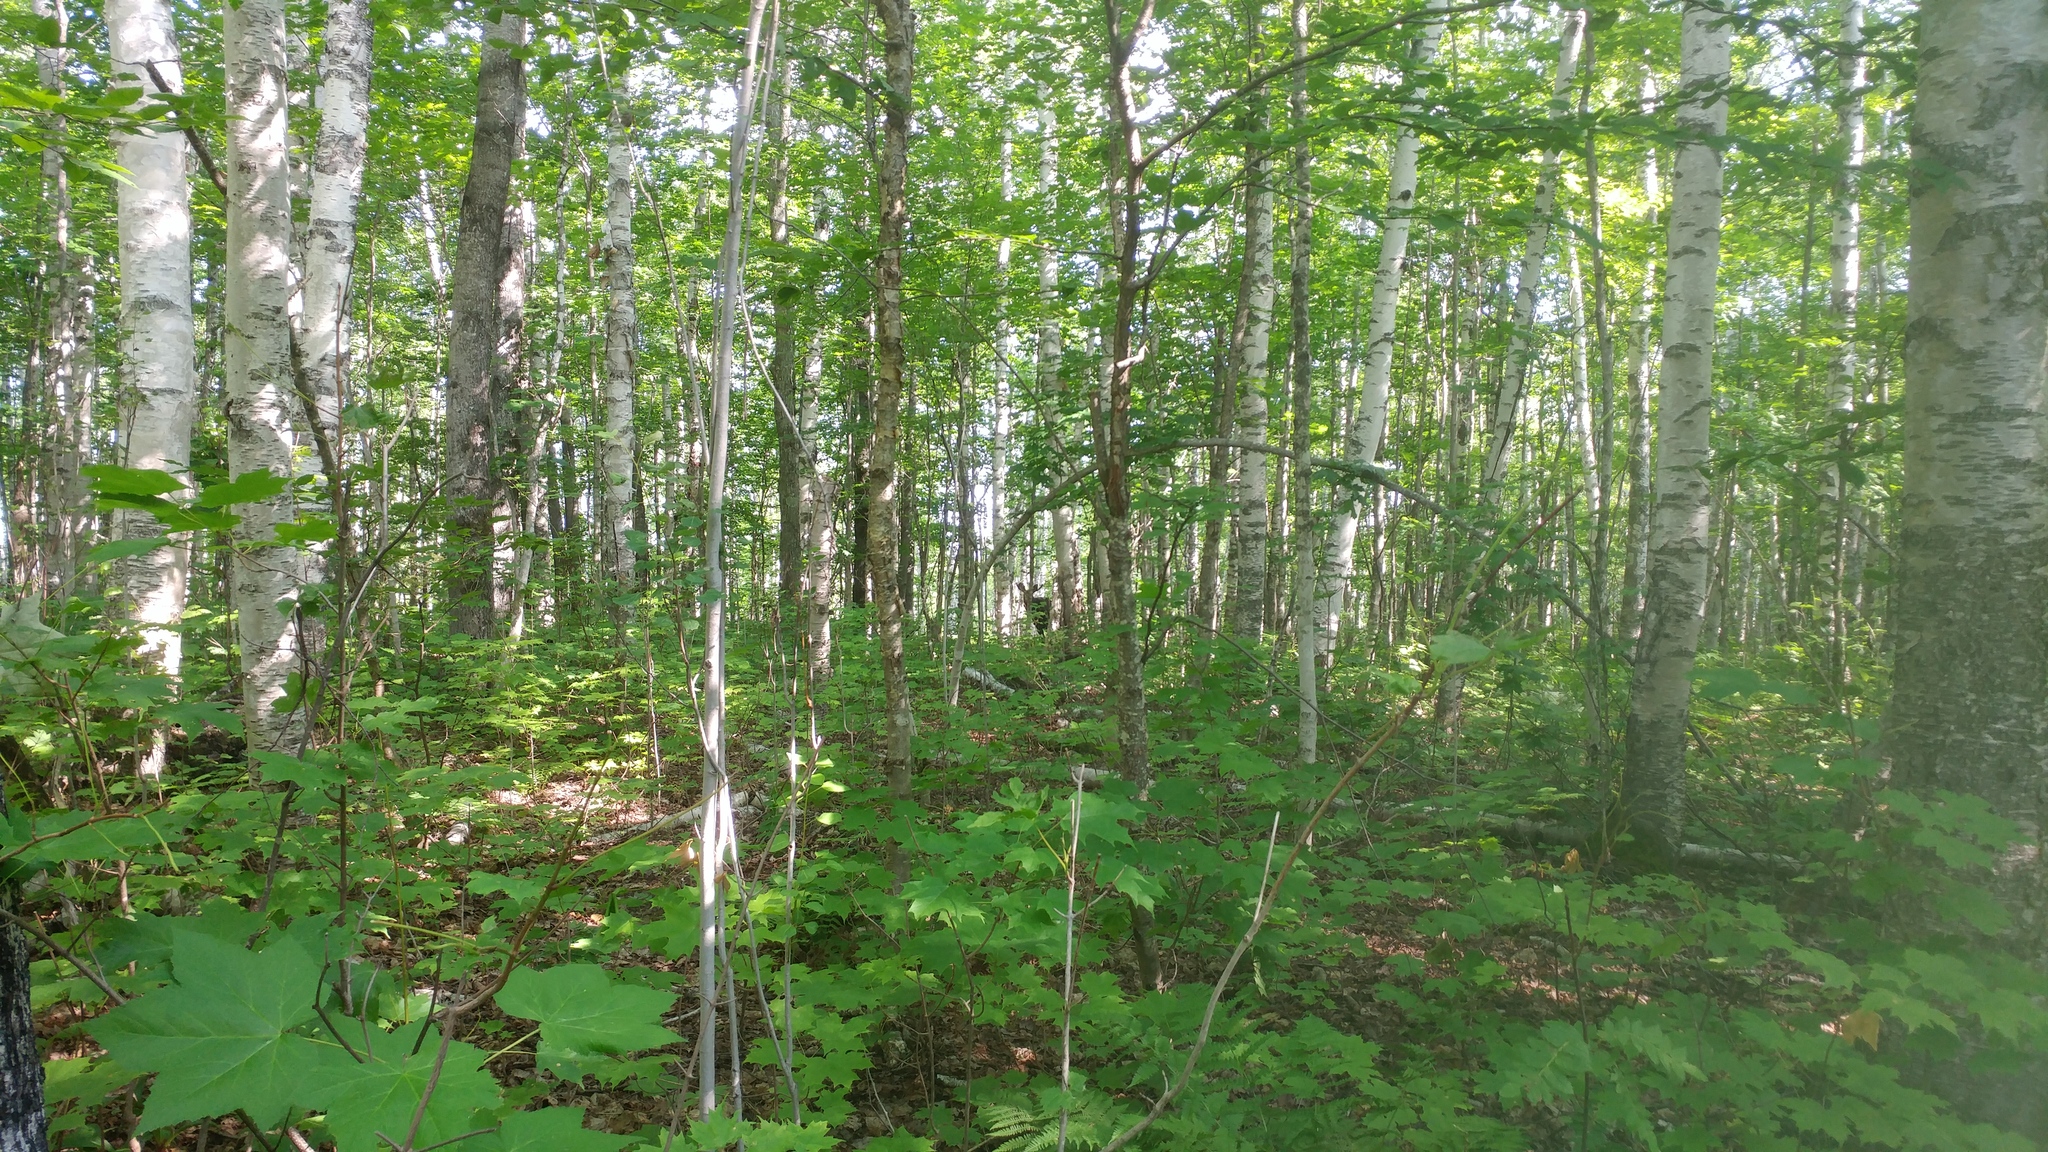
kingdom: Animalia
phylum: Chordata
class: Mammalia
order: Artiodactyla
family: Cervidae
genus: Alces
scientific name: Alces alces
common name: Moose
